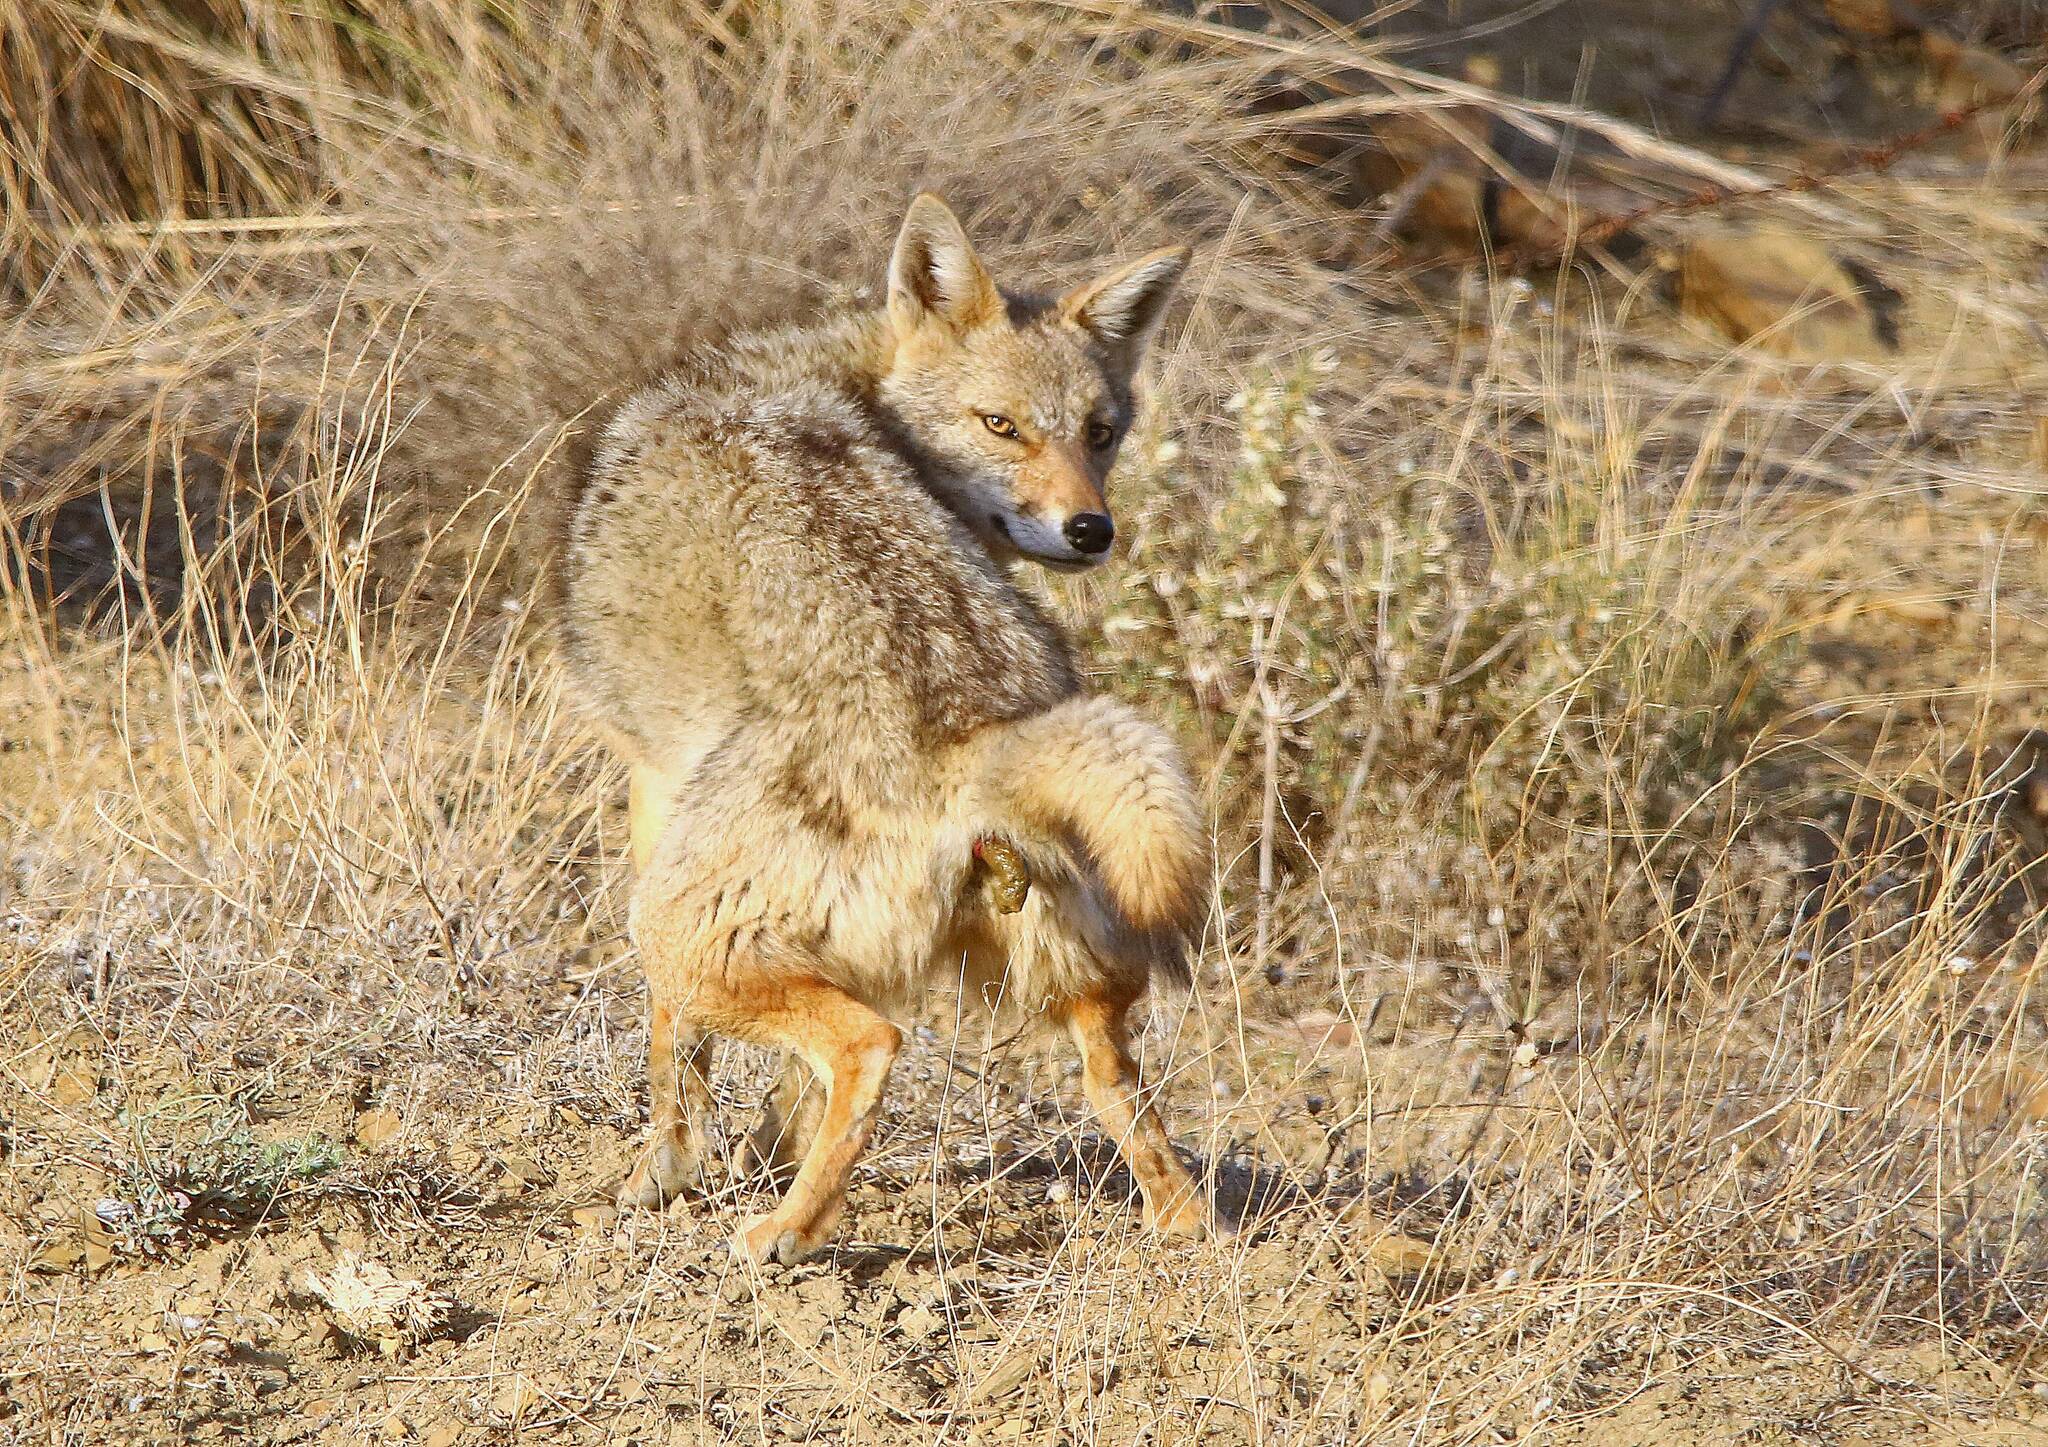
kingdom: Animalia
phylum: Chordata
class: Mammalia
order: Carnivora
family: Canidae
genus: Canis
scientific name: Canis lupaster
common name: African golden wolf
